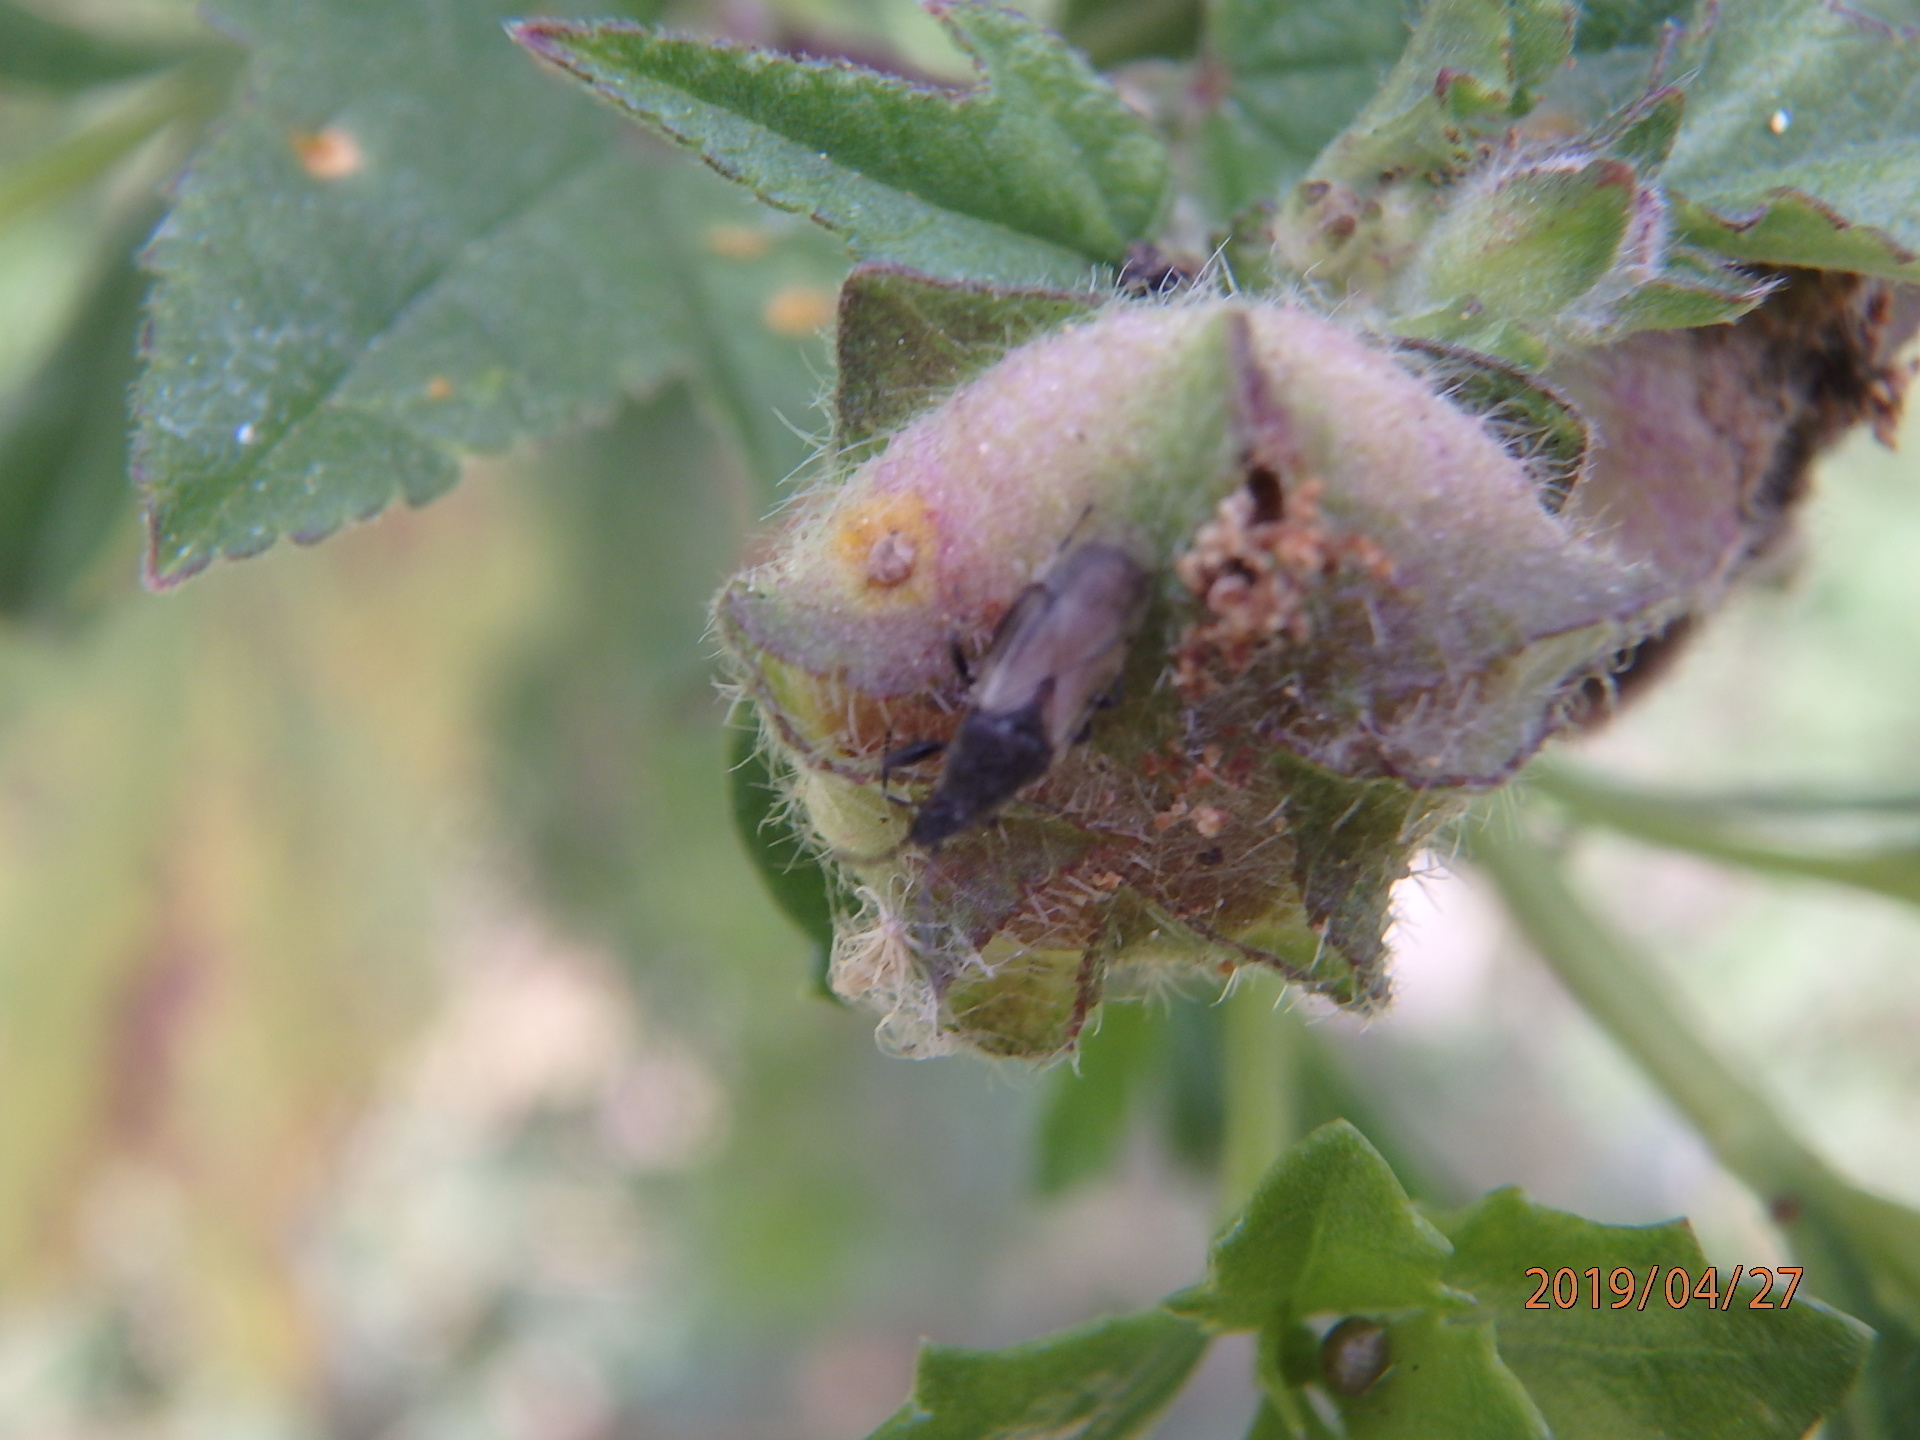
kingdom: Animalia
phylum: Arthropoda
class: Insecta
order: Hemiptera
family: Oxycarenidae
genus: Oxycarenus
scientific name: Oxycarenus hyalinipennis
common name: Cotton seed bug
